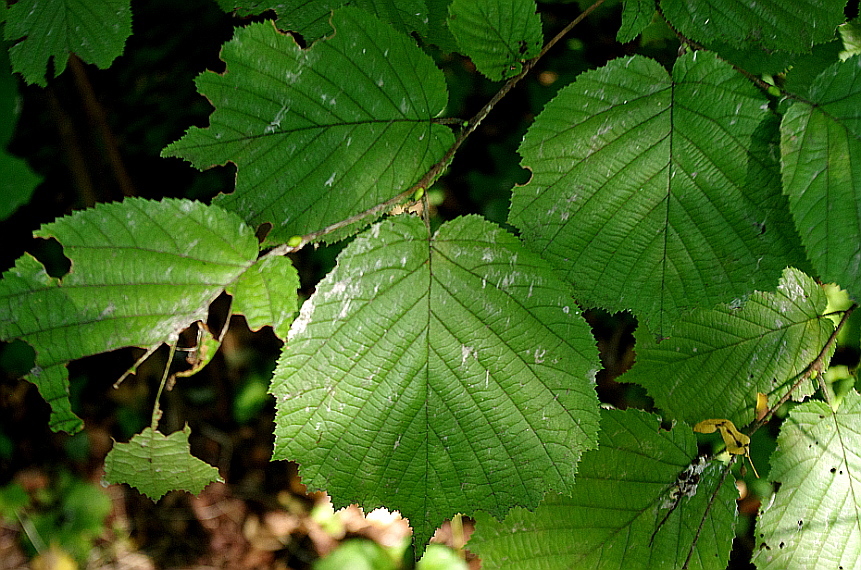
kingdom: Plantae
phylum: Tracheophyta
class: Magnoliopsida
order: Fagales
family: Betulaceae
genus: Corylus
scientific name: Corylus avellana
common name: European hazel
